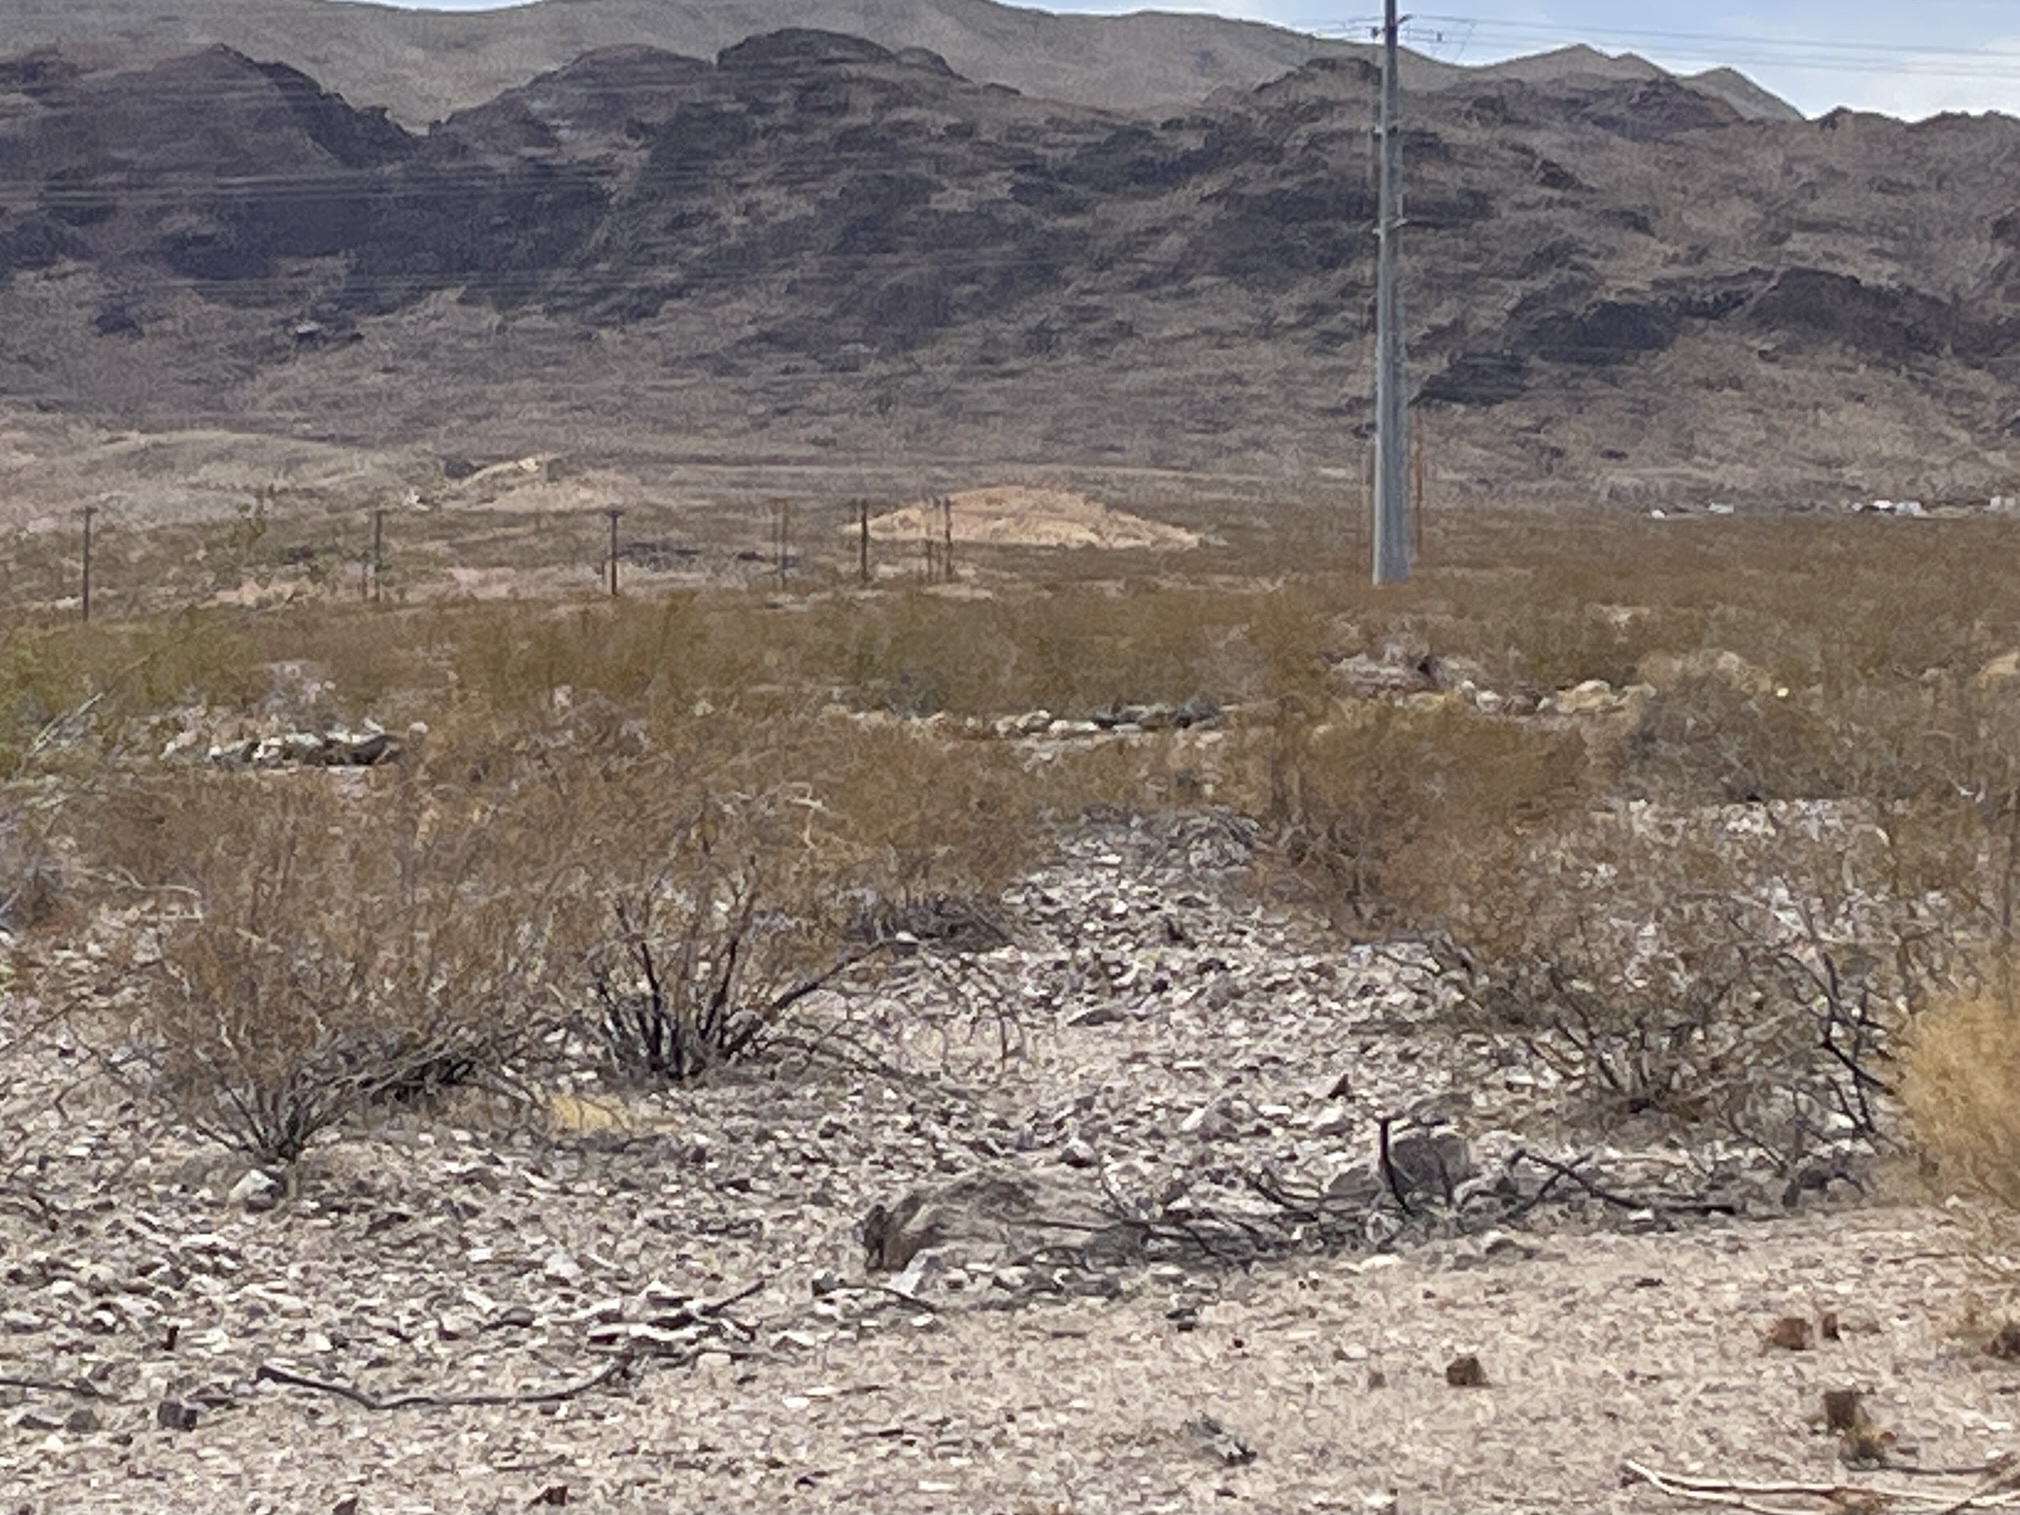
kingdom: Plantae
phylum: Tracheophyta
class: Magnoliopsida
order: Zygophyllales
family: Zygophyllaceae
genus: Larrea
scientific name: Larrea tridentata
